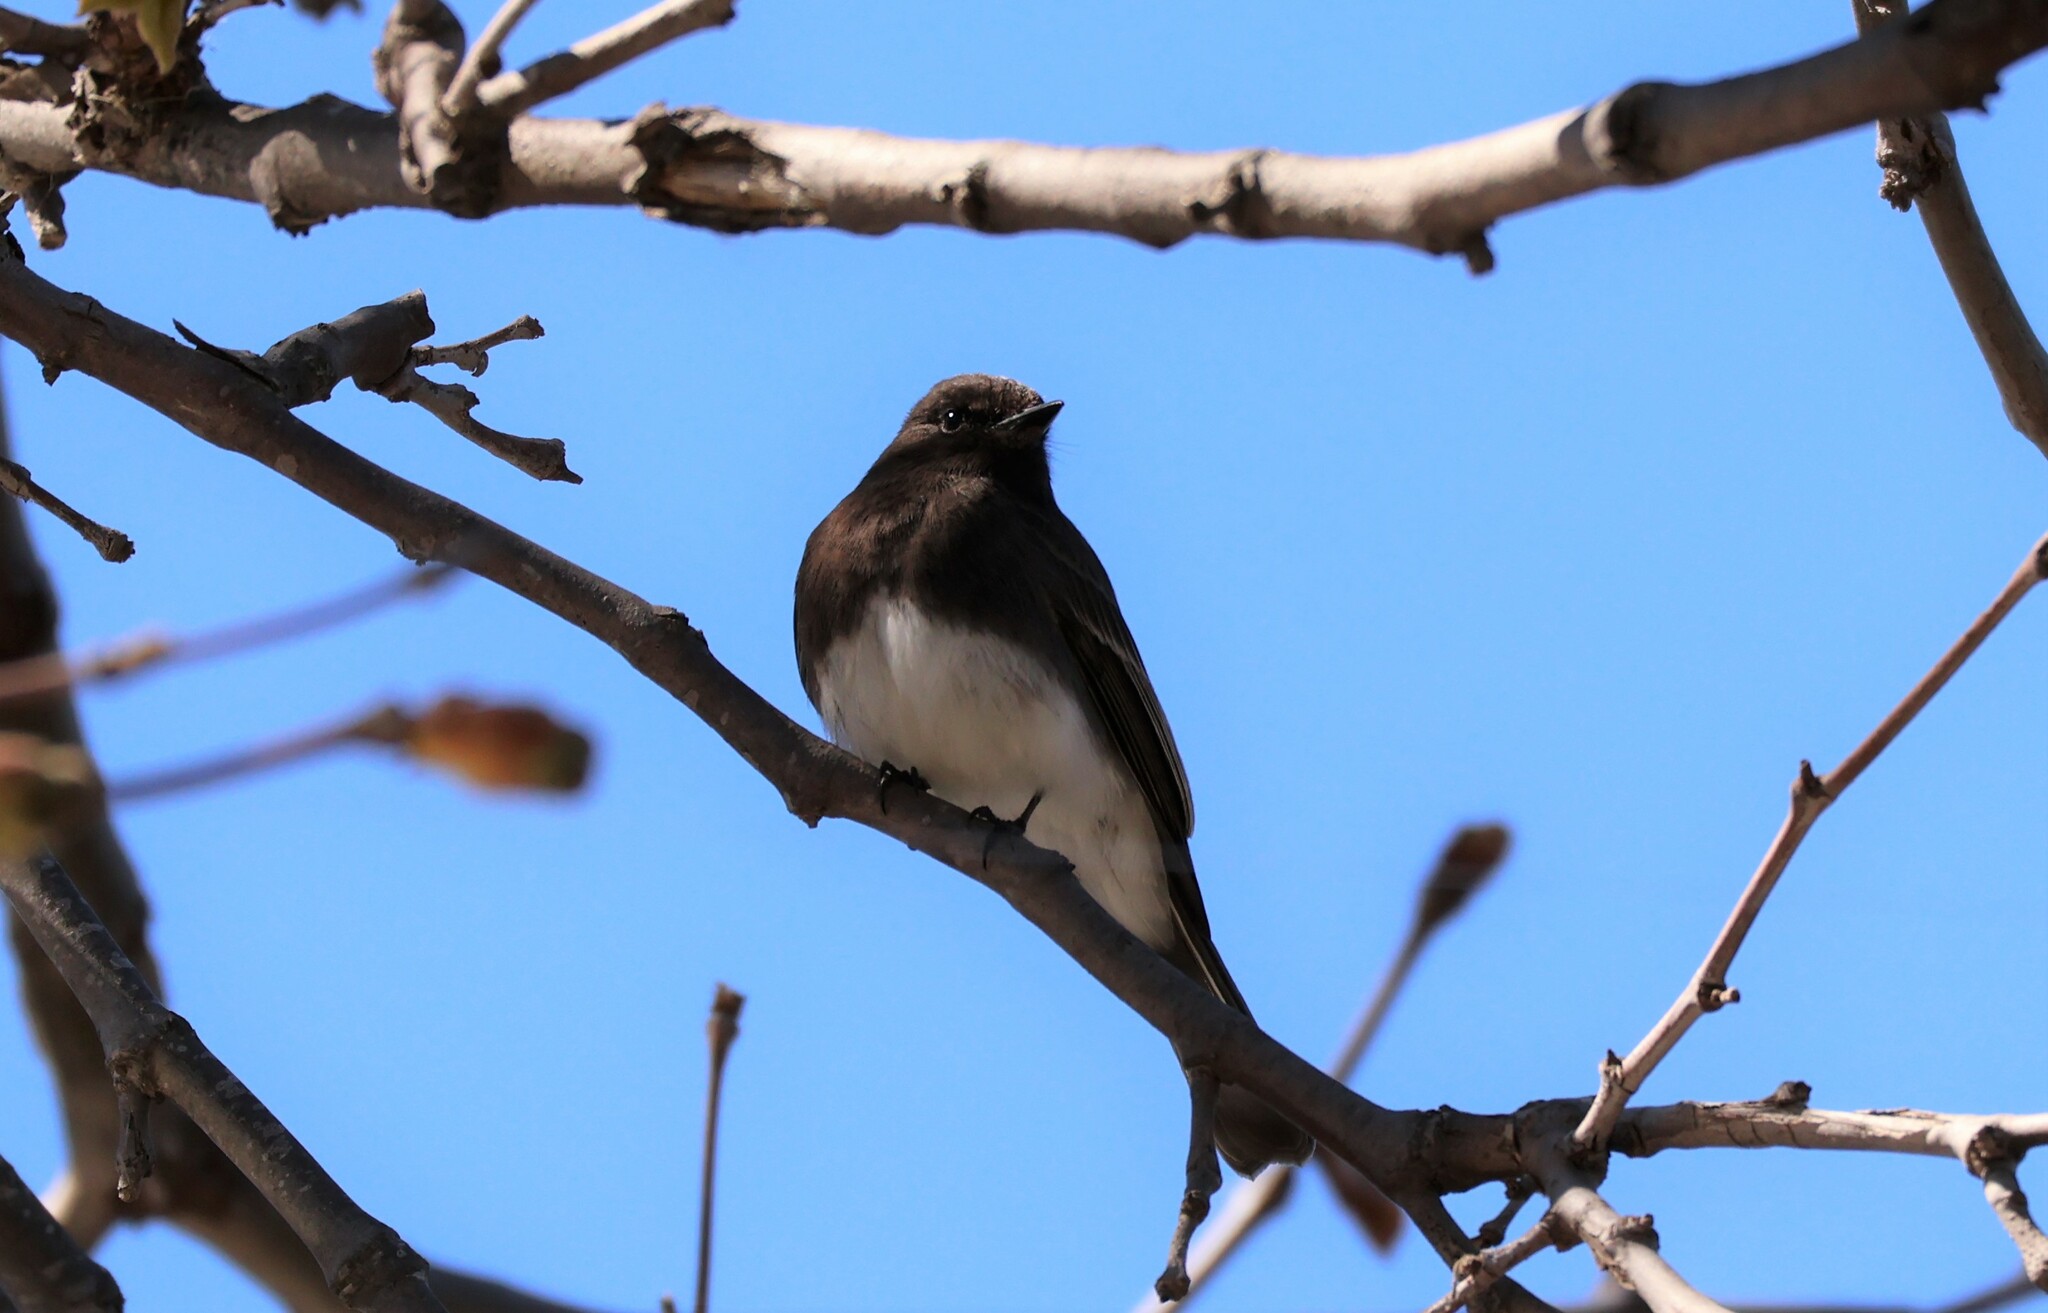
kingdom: Animalia
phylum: Chordata
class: Aves
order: Passeriformes
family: Tyrannidae
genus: Sayornis
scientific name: Sayornis nigricans
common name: Black phoebe
